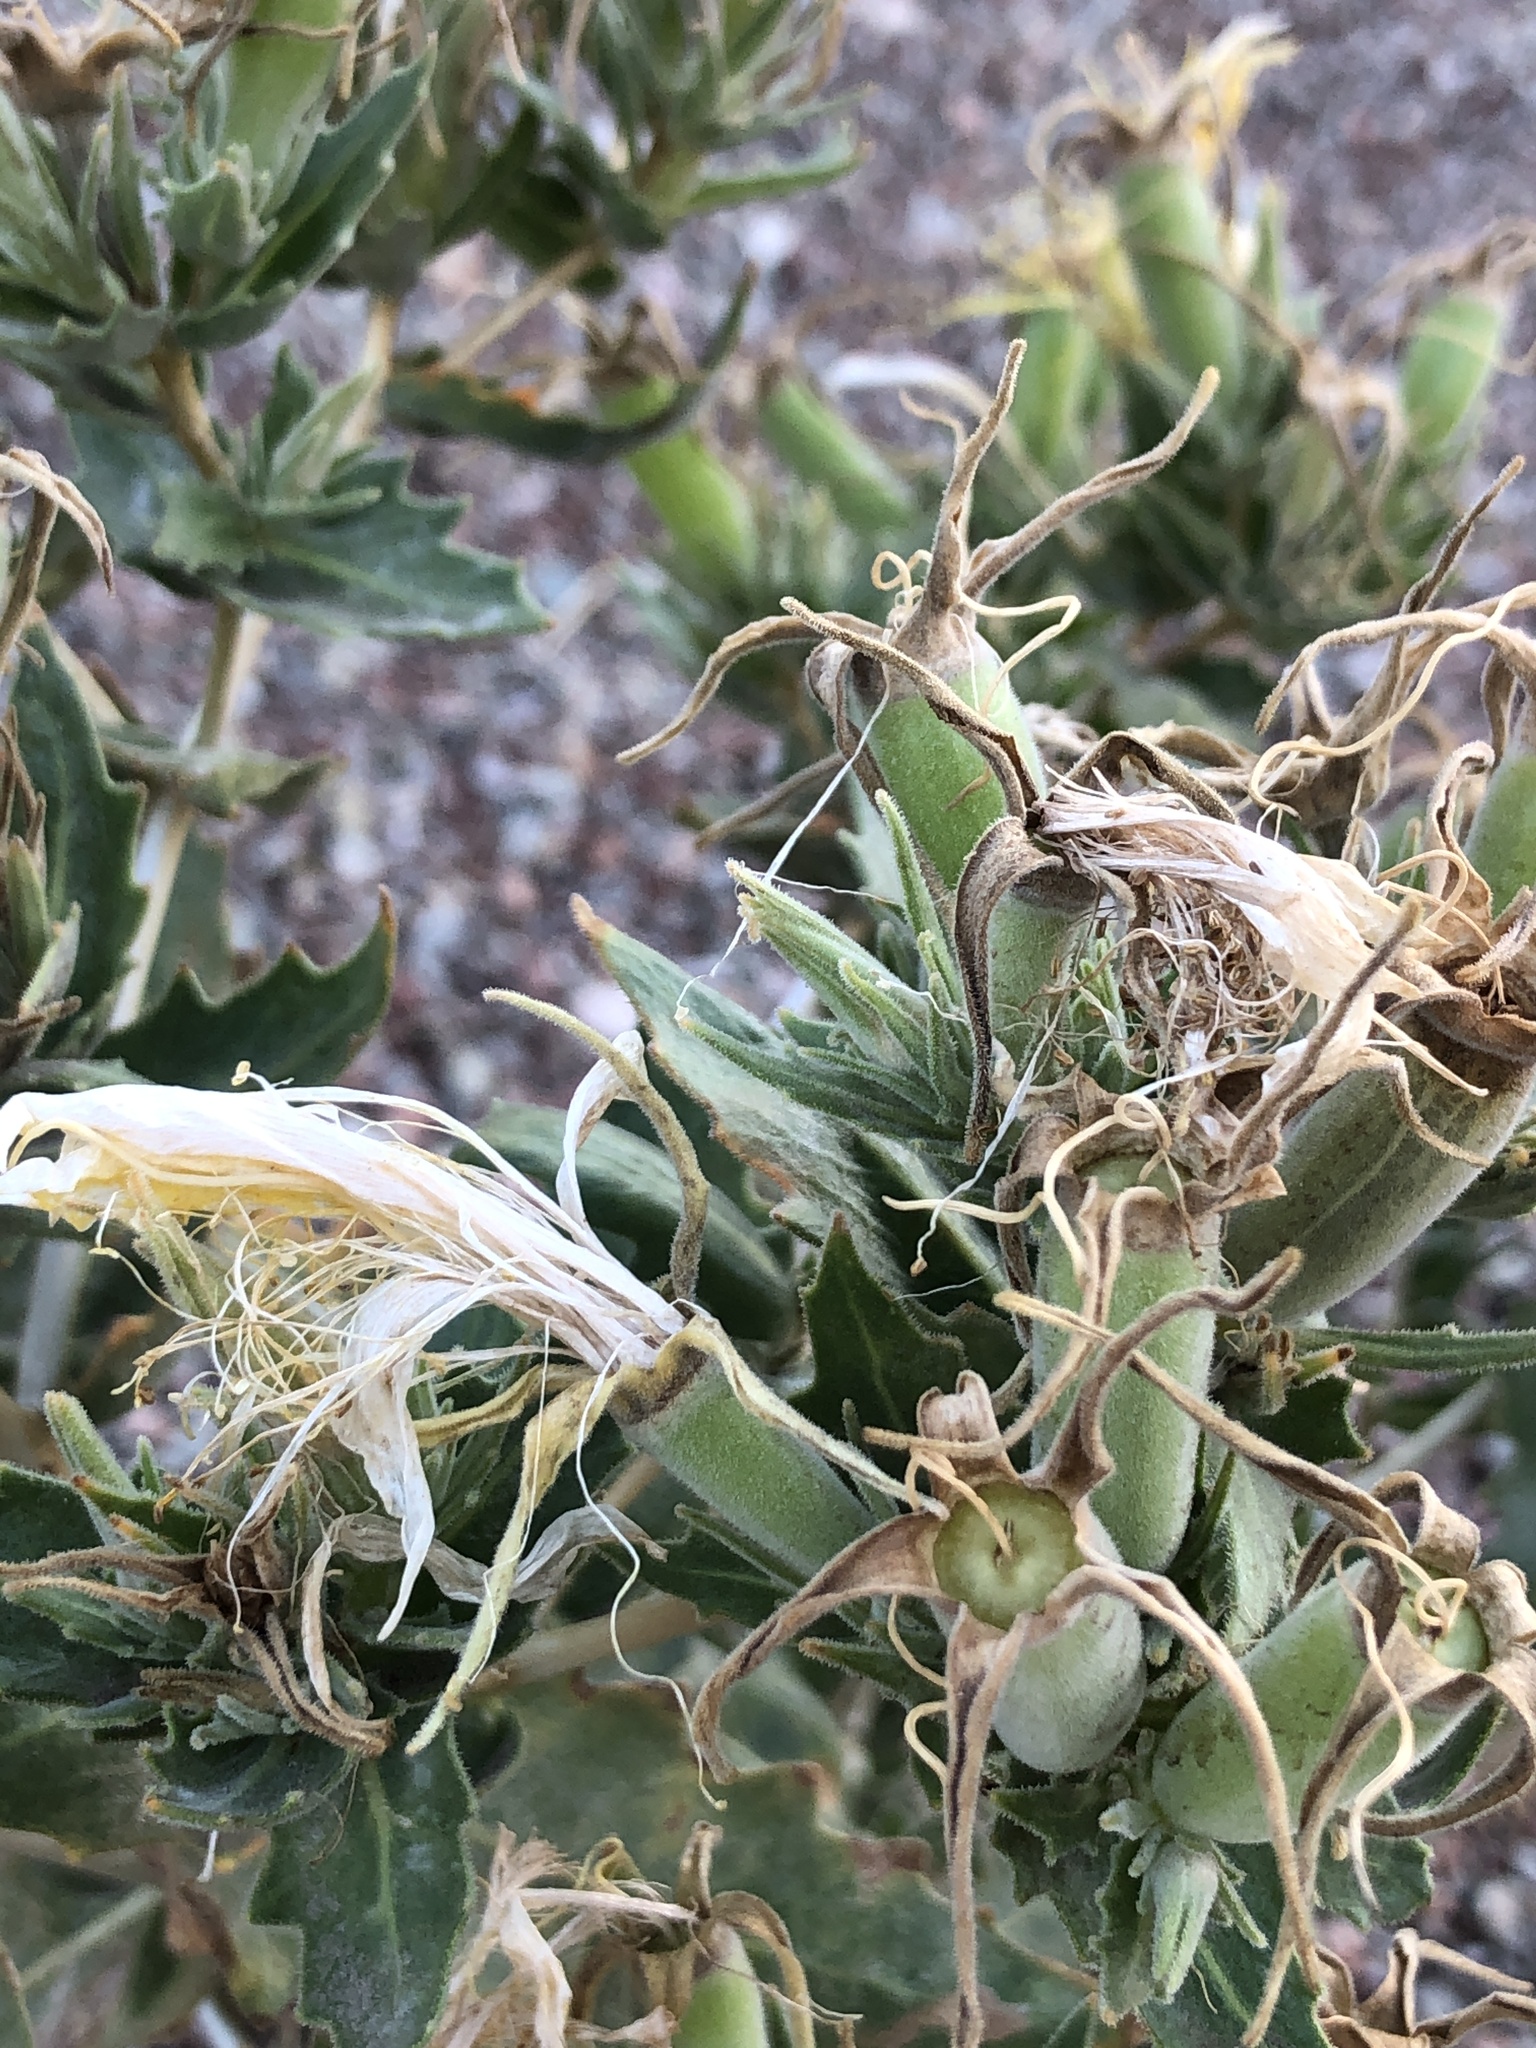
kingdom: Plantae
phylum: Tracheophyta
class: Magnoliopsida
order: Cornales
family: Loasaceae
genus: Mentzelia
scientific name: Mentzelia laevicaulis
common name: Smooth-stem blazingstar
